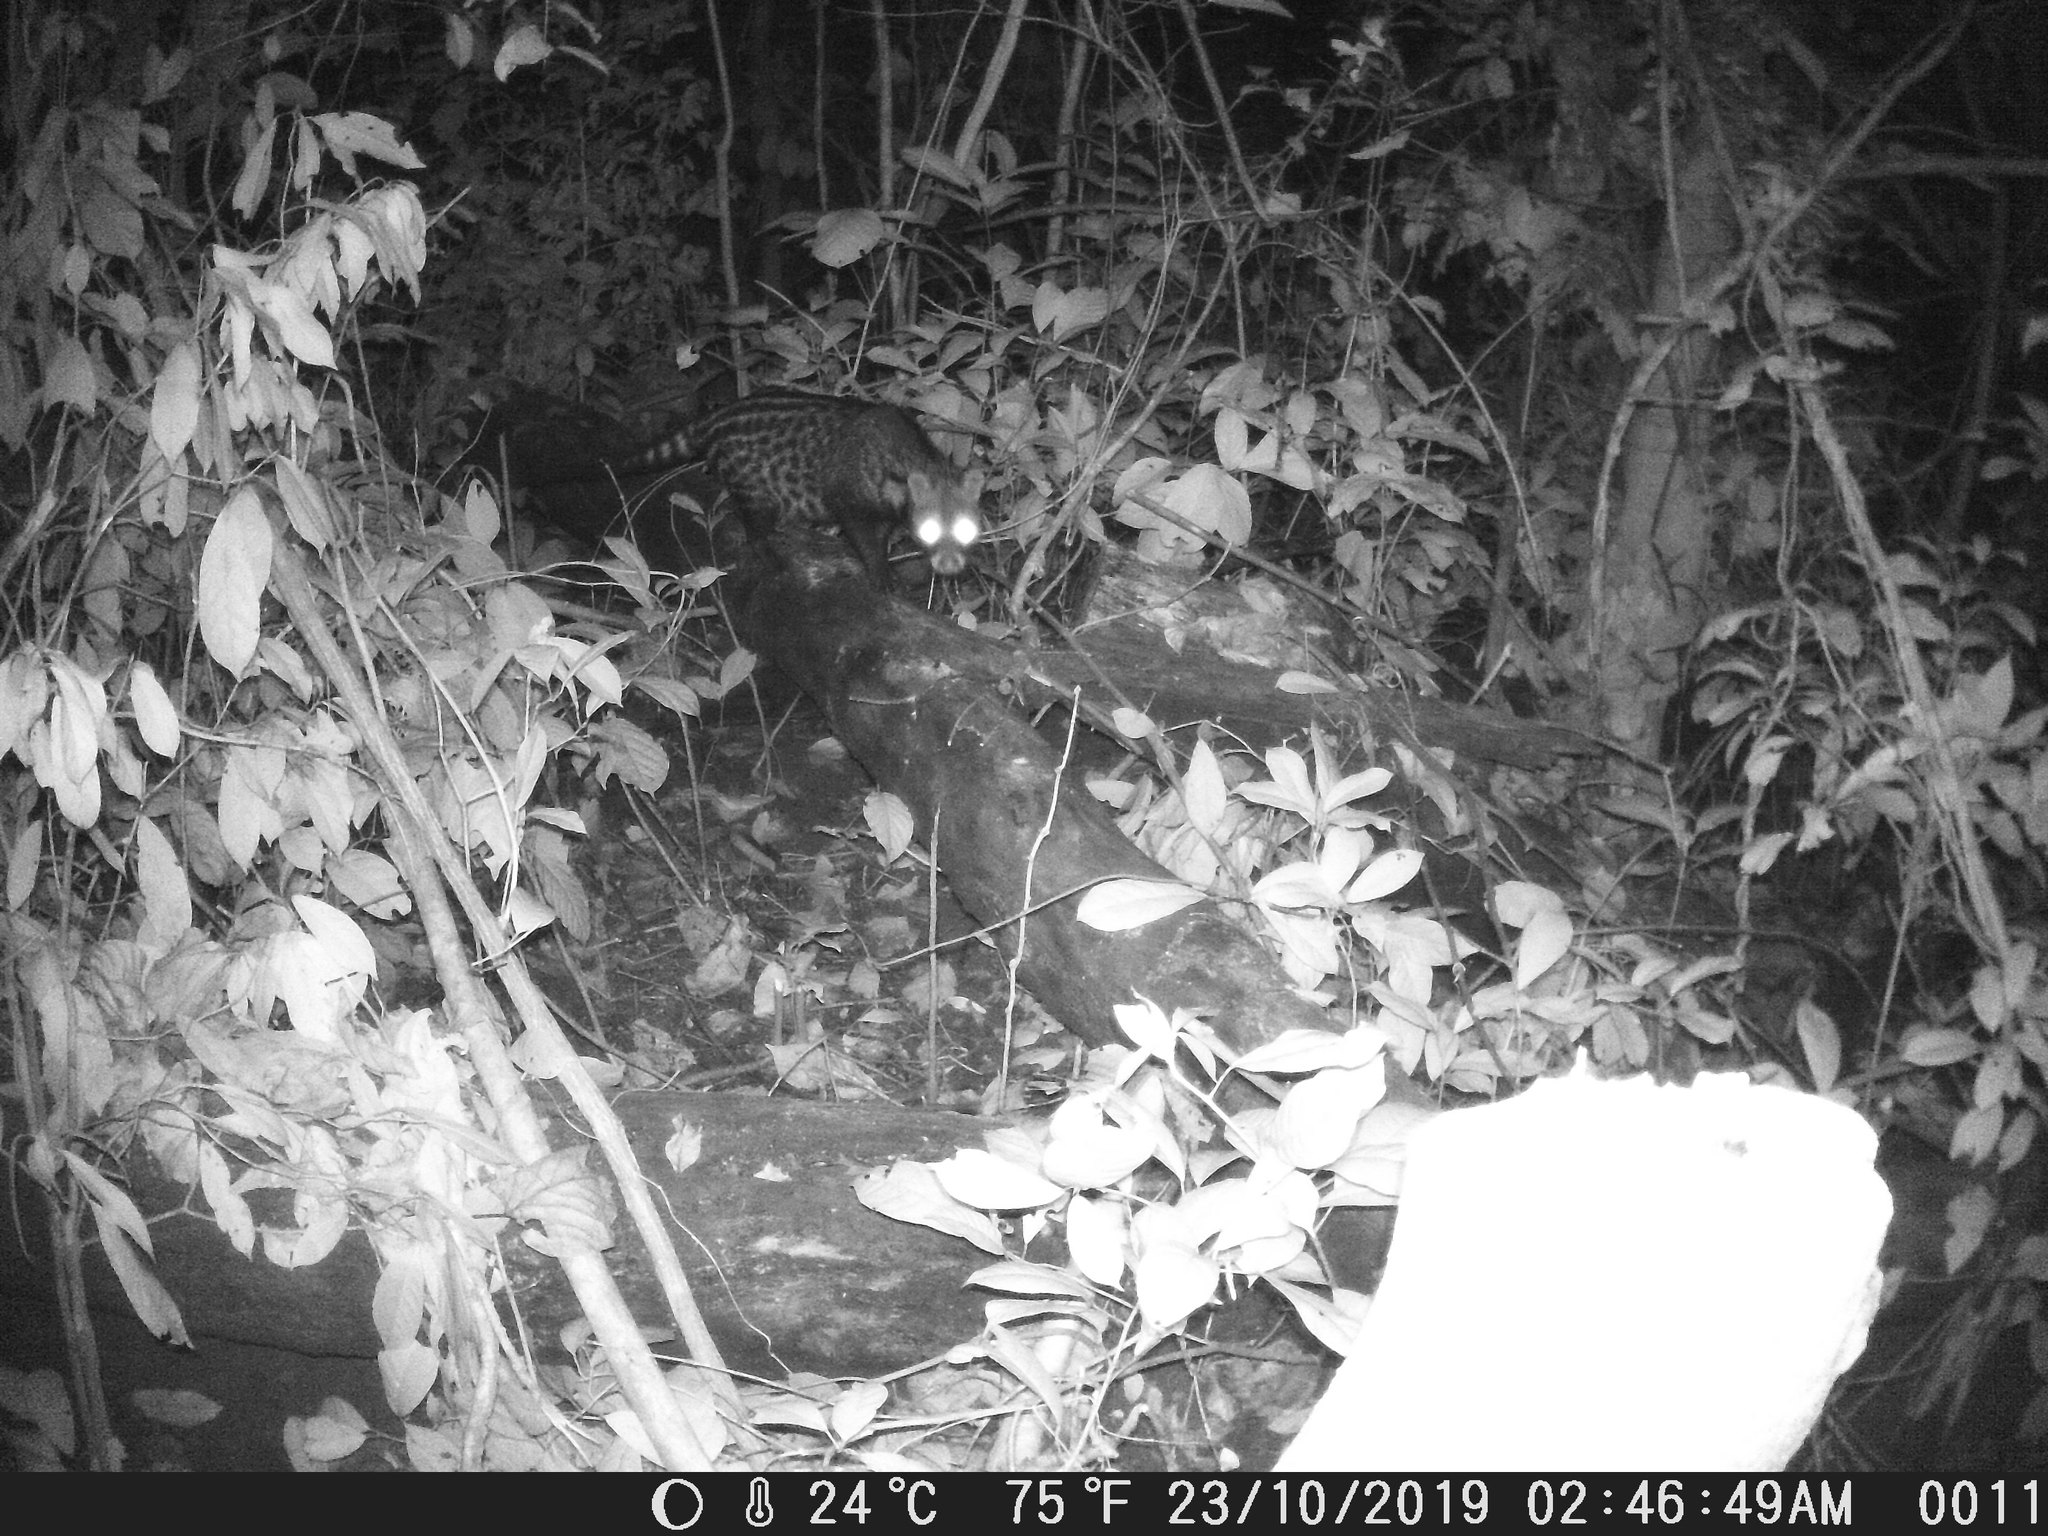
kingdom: Animalia
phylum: Chordata
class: Mammalia
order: Carnivora
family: Viverridae
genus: Civettictis
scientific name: Civettictis civetta
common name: African civet
